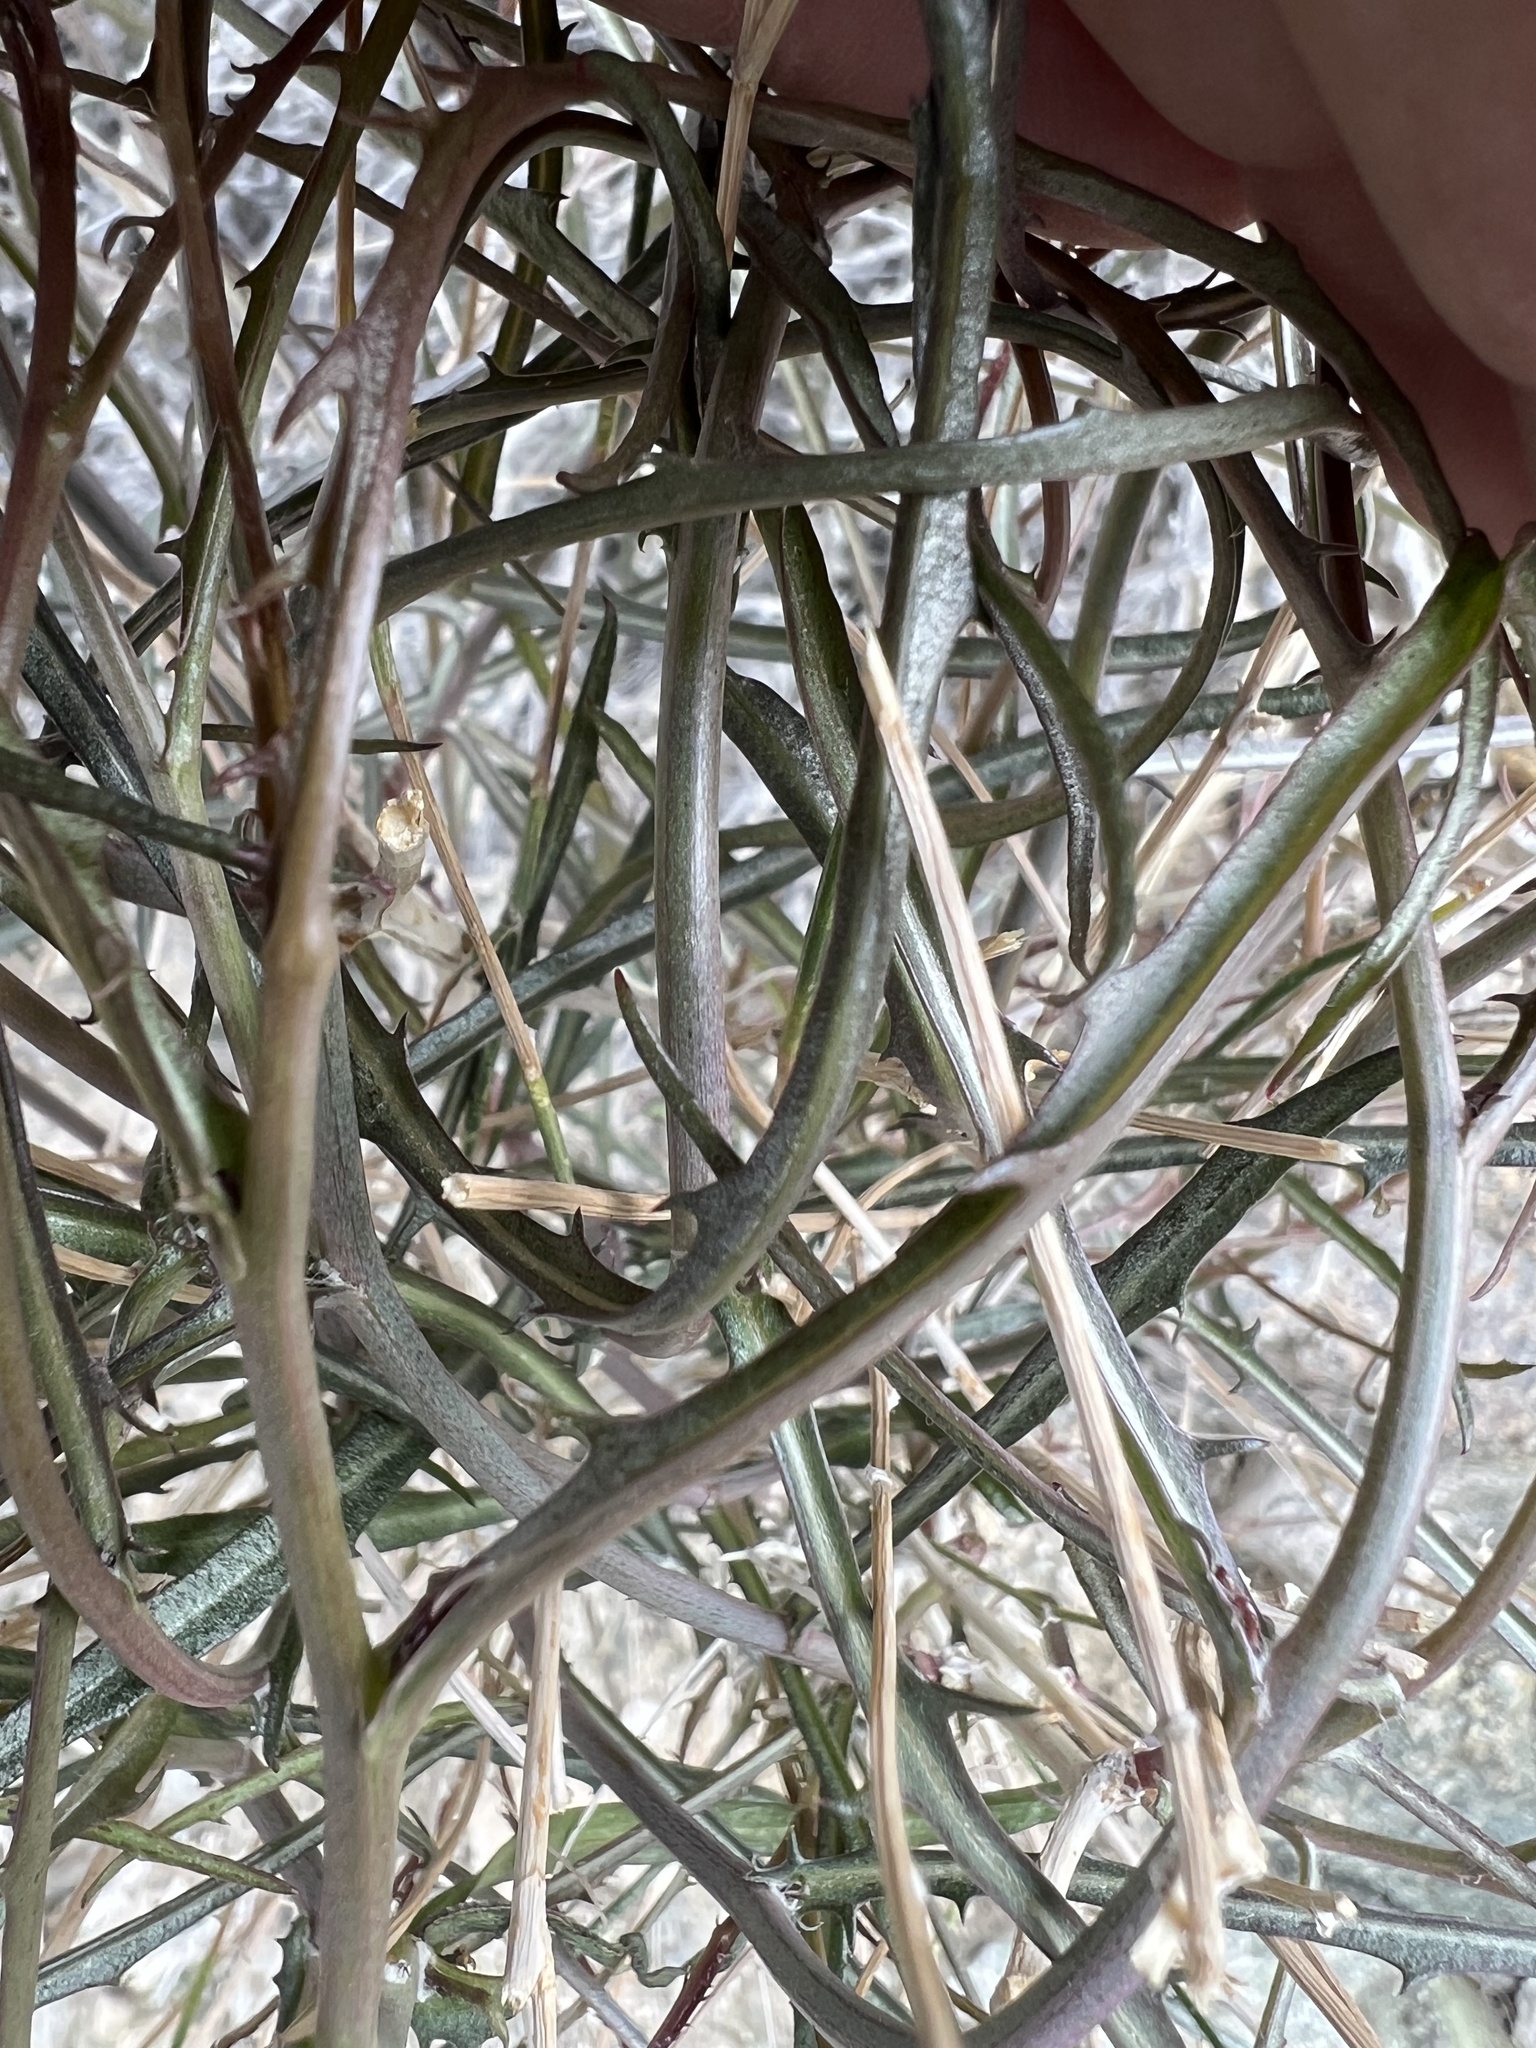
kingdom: Plantae
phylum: Tracheophyta
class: Magnoliopsida
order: Asterales
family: Asteraceae
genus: Stephanomeria
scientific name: Stephanomeria pauciflora
